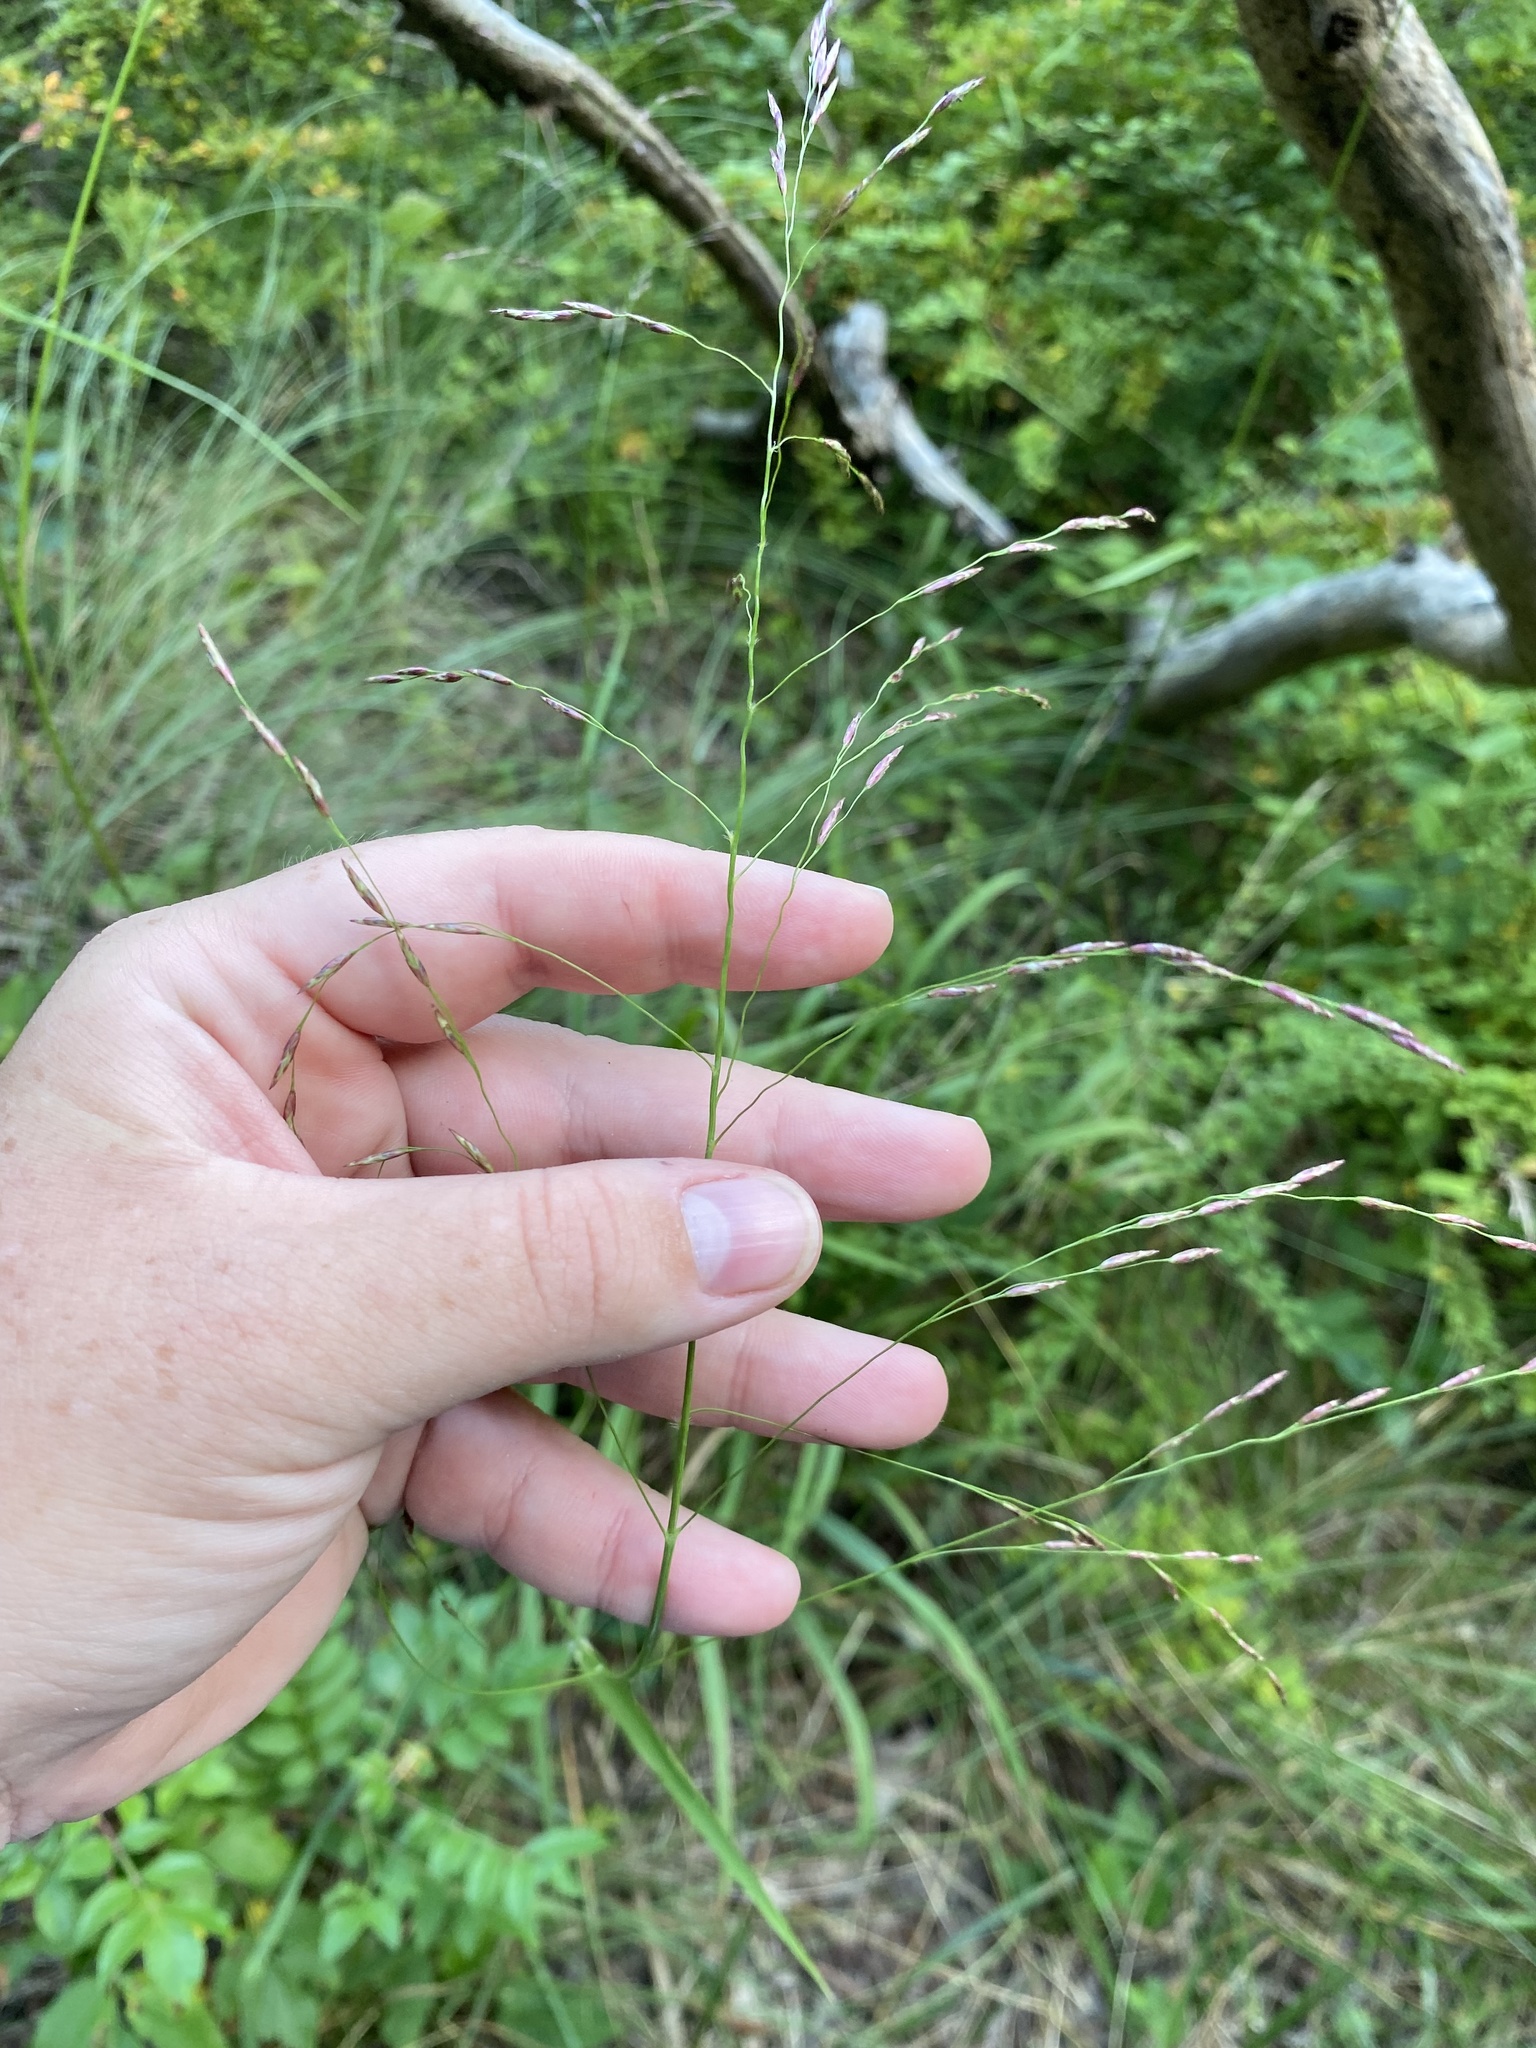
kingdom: Plantae
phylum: Tracheophyta
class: Liliopsida
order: Poales
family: Poaceae
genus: Tridens
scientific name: Tridens flavus
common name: Purpletop
